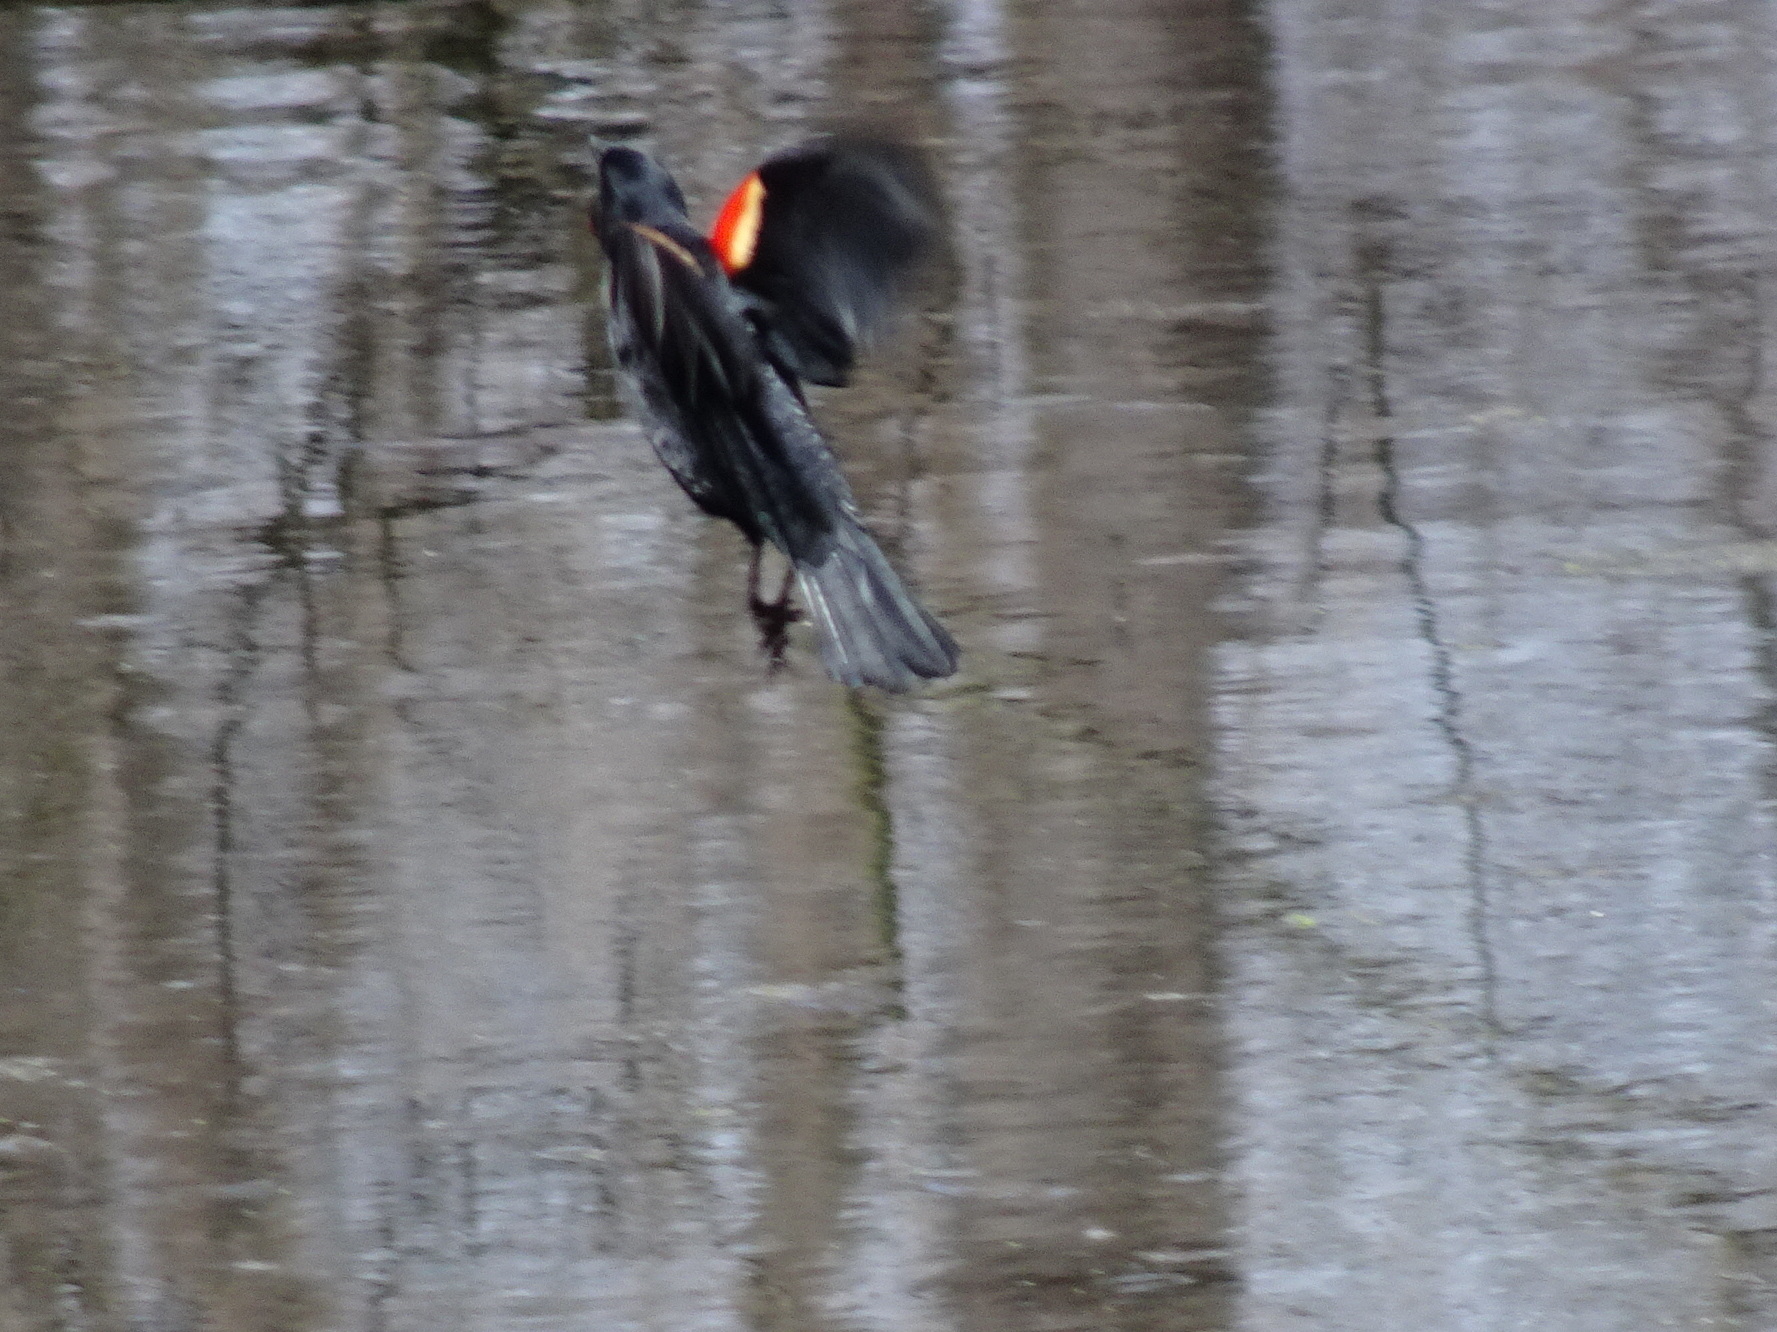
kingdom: Animalia
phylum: Chordata
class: Aves
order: Passeriformes
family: Icteridae
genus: Agelaius
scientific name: Agelaius phoeniceus
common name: Red-winged blackbird
